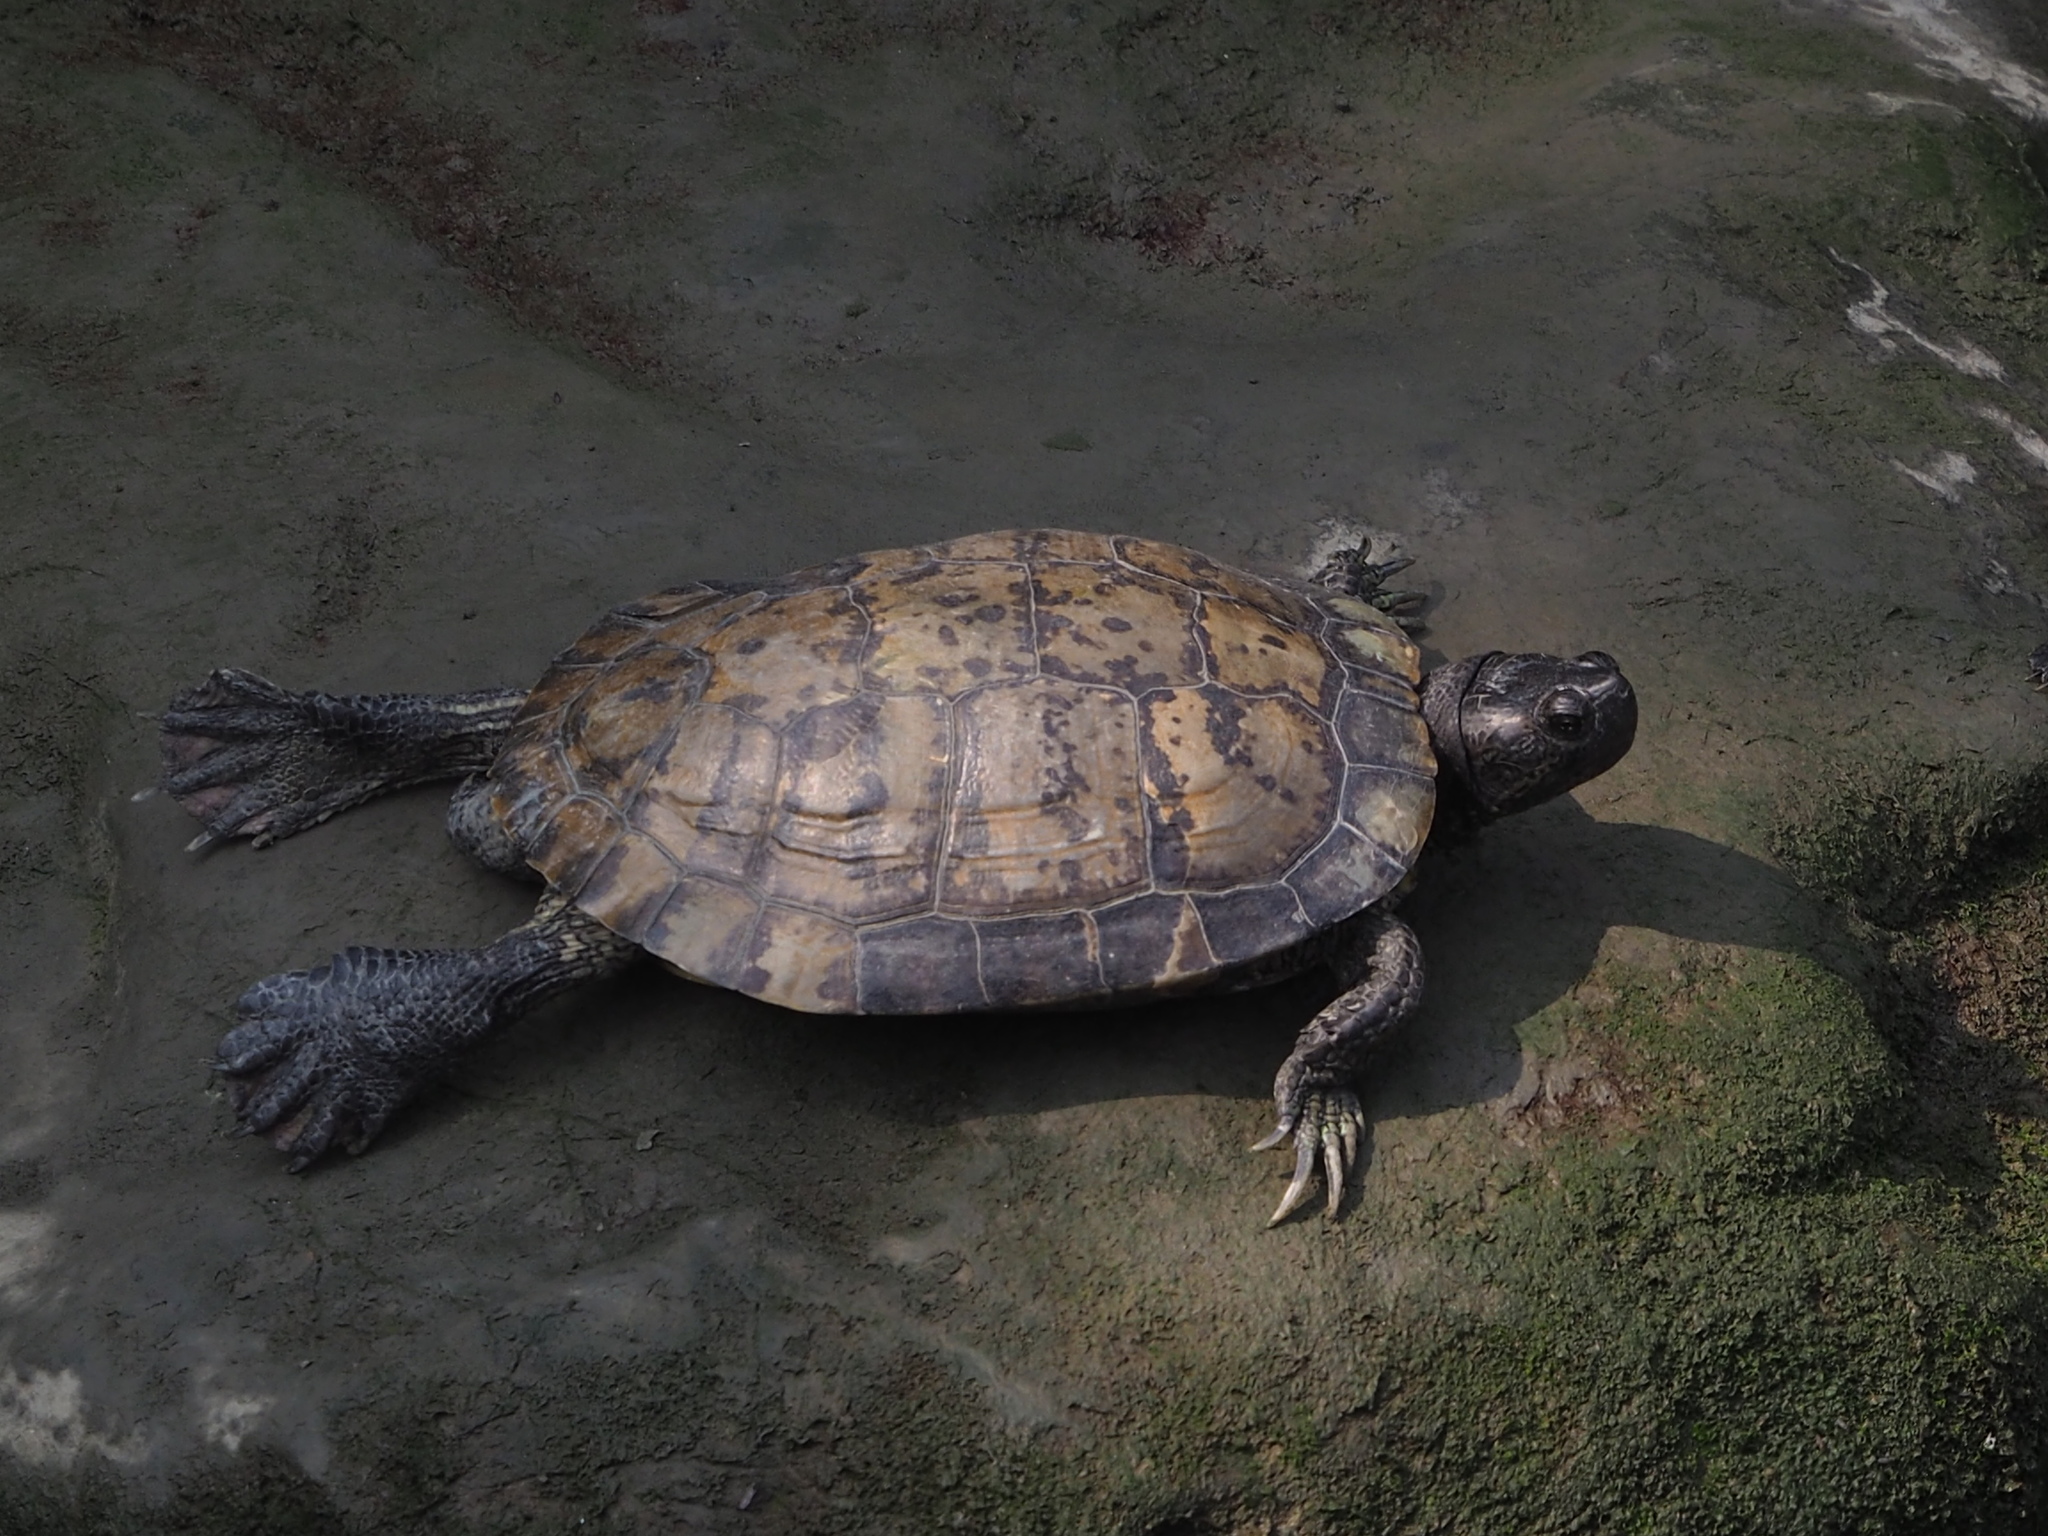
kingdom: Animalia
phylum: Chordata
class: Testudines
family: Emydidae
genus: Trachemys
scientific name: Trachemys scripta
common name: Slider
